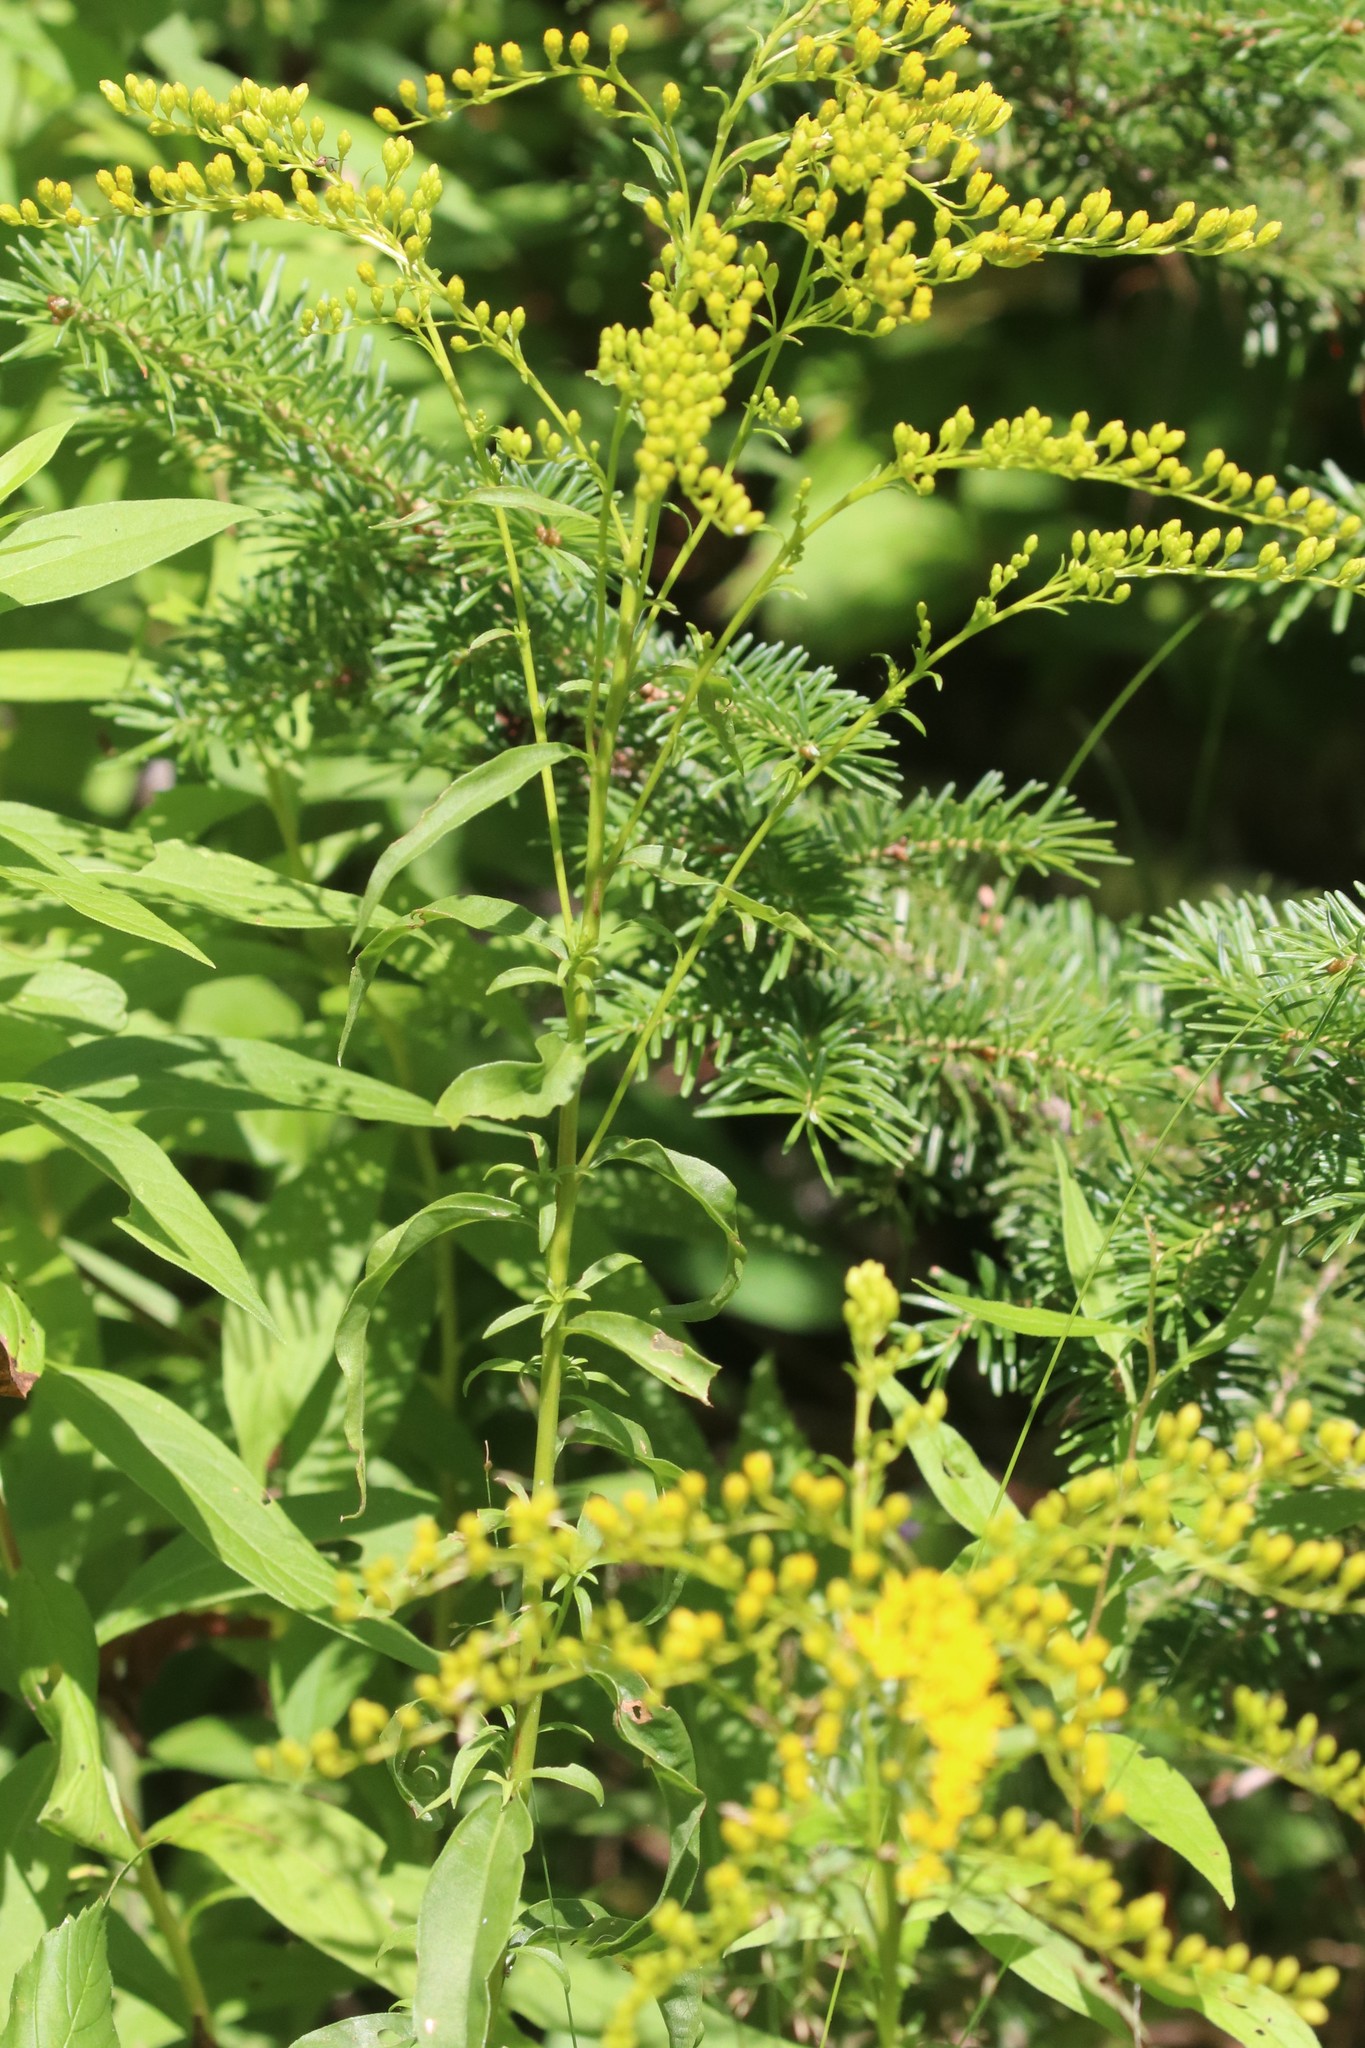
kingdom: Plantae
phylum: Tracheophyta
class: Magnoliopsida
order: Asterales
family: Asteraceae
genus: Solidago
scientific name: Solidago juncea
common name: Early goldenrod
